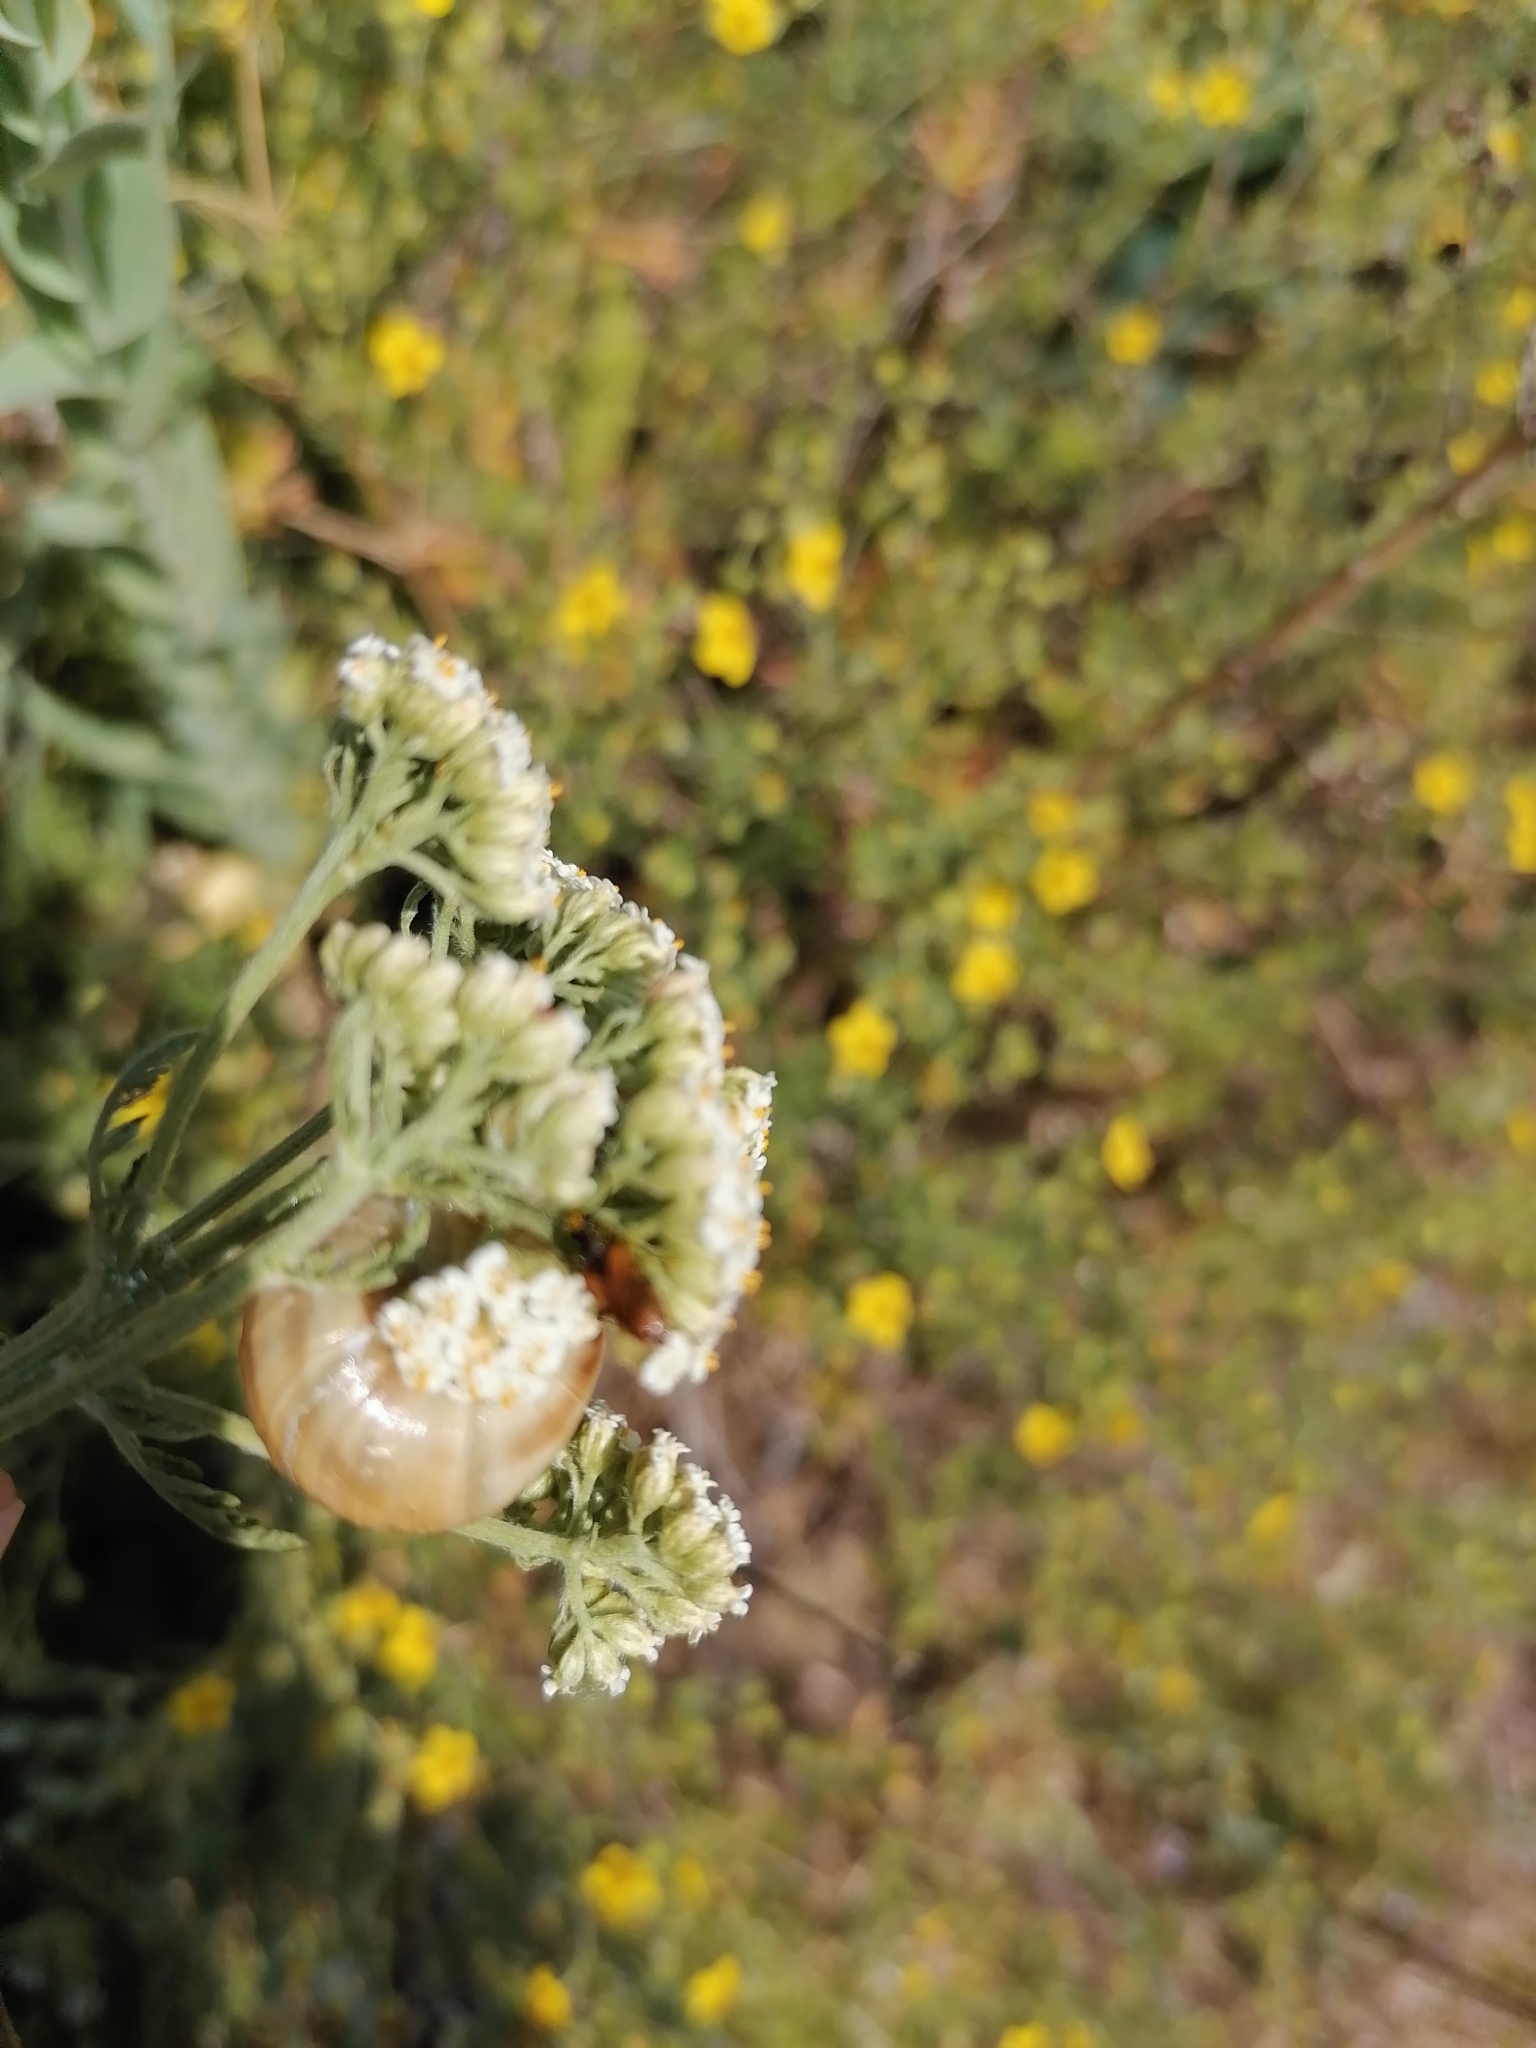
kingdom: Animalia
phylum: Mollusca
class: Gastropoda
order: Stylommatophora
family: Helicidae
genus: Caucasotachea
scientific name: Caucasotachea vindobonensis
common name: European helicid land snail
